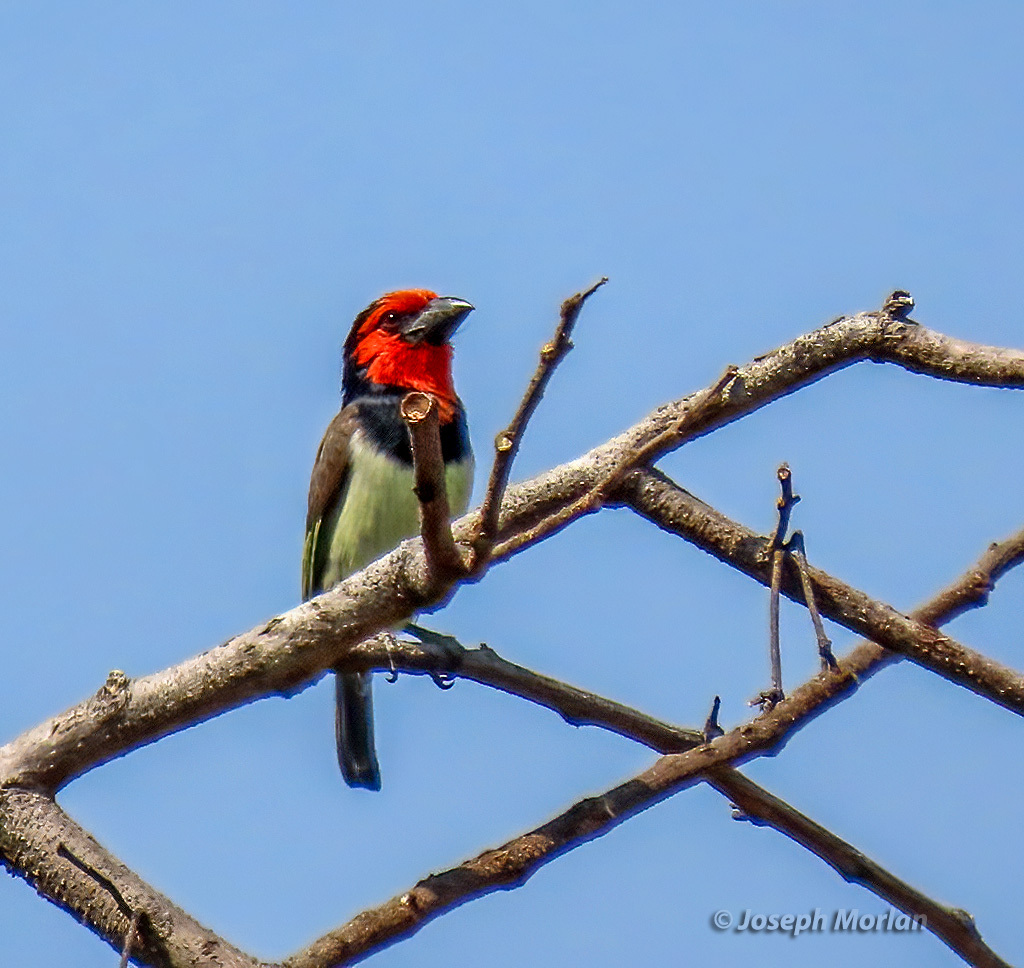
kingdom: Animalia
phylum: Chordata
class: Aves
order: Piciformes
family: Lybiidae
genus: Lybius
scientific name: Lybius torquatus
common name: Black-collared barbet
